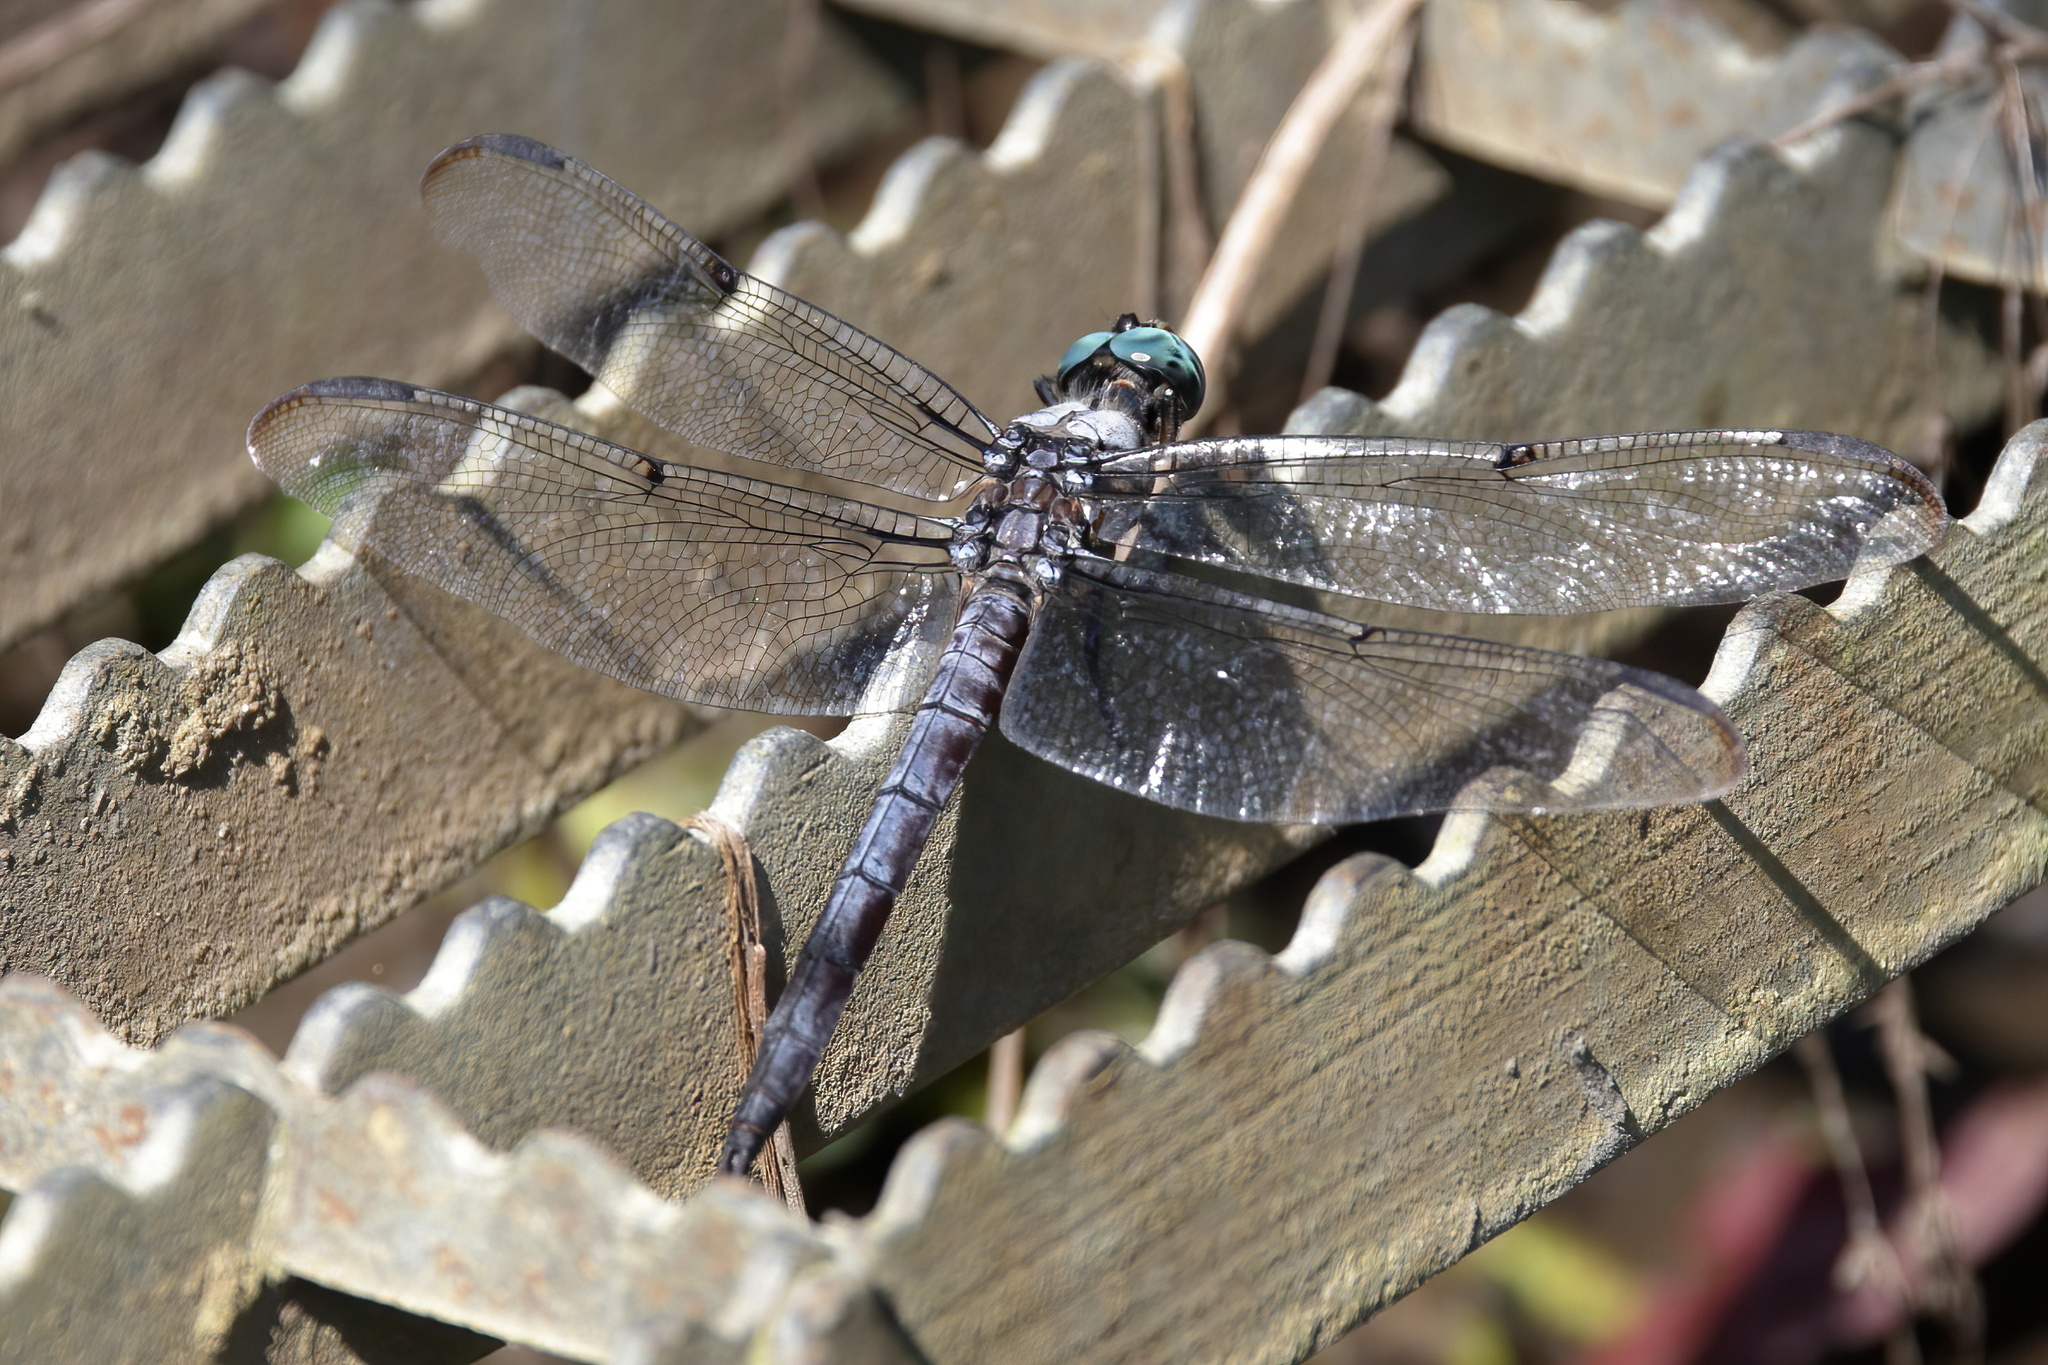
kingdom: Animalia
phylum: Arthropoda
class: Insecta
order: Odonata
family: Libellulidae
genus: Libellula
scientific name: Libellula vibrans
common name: Great blue skimmer
